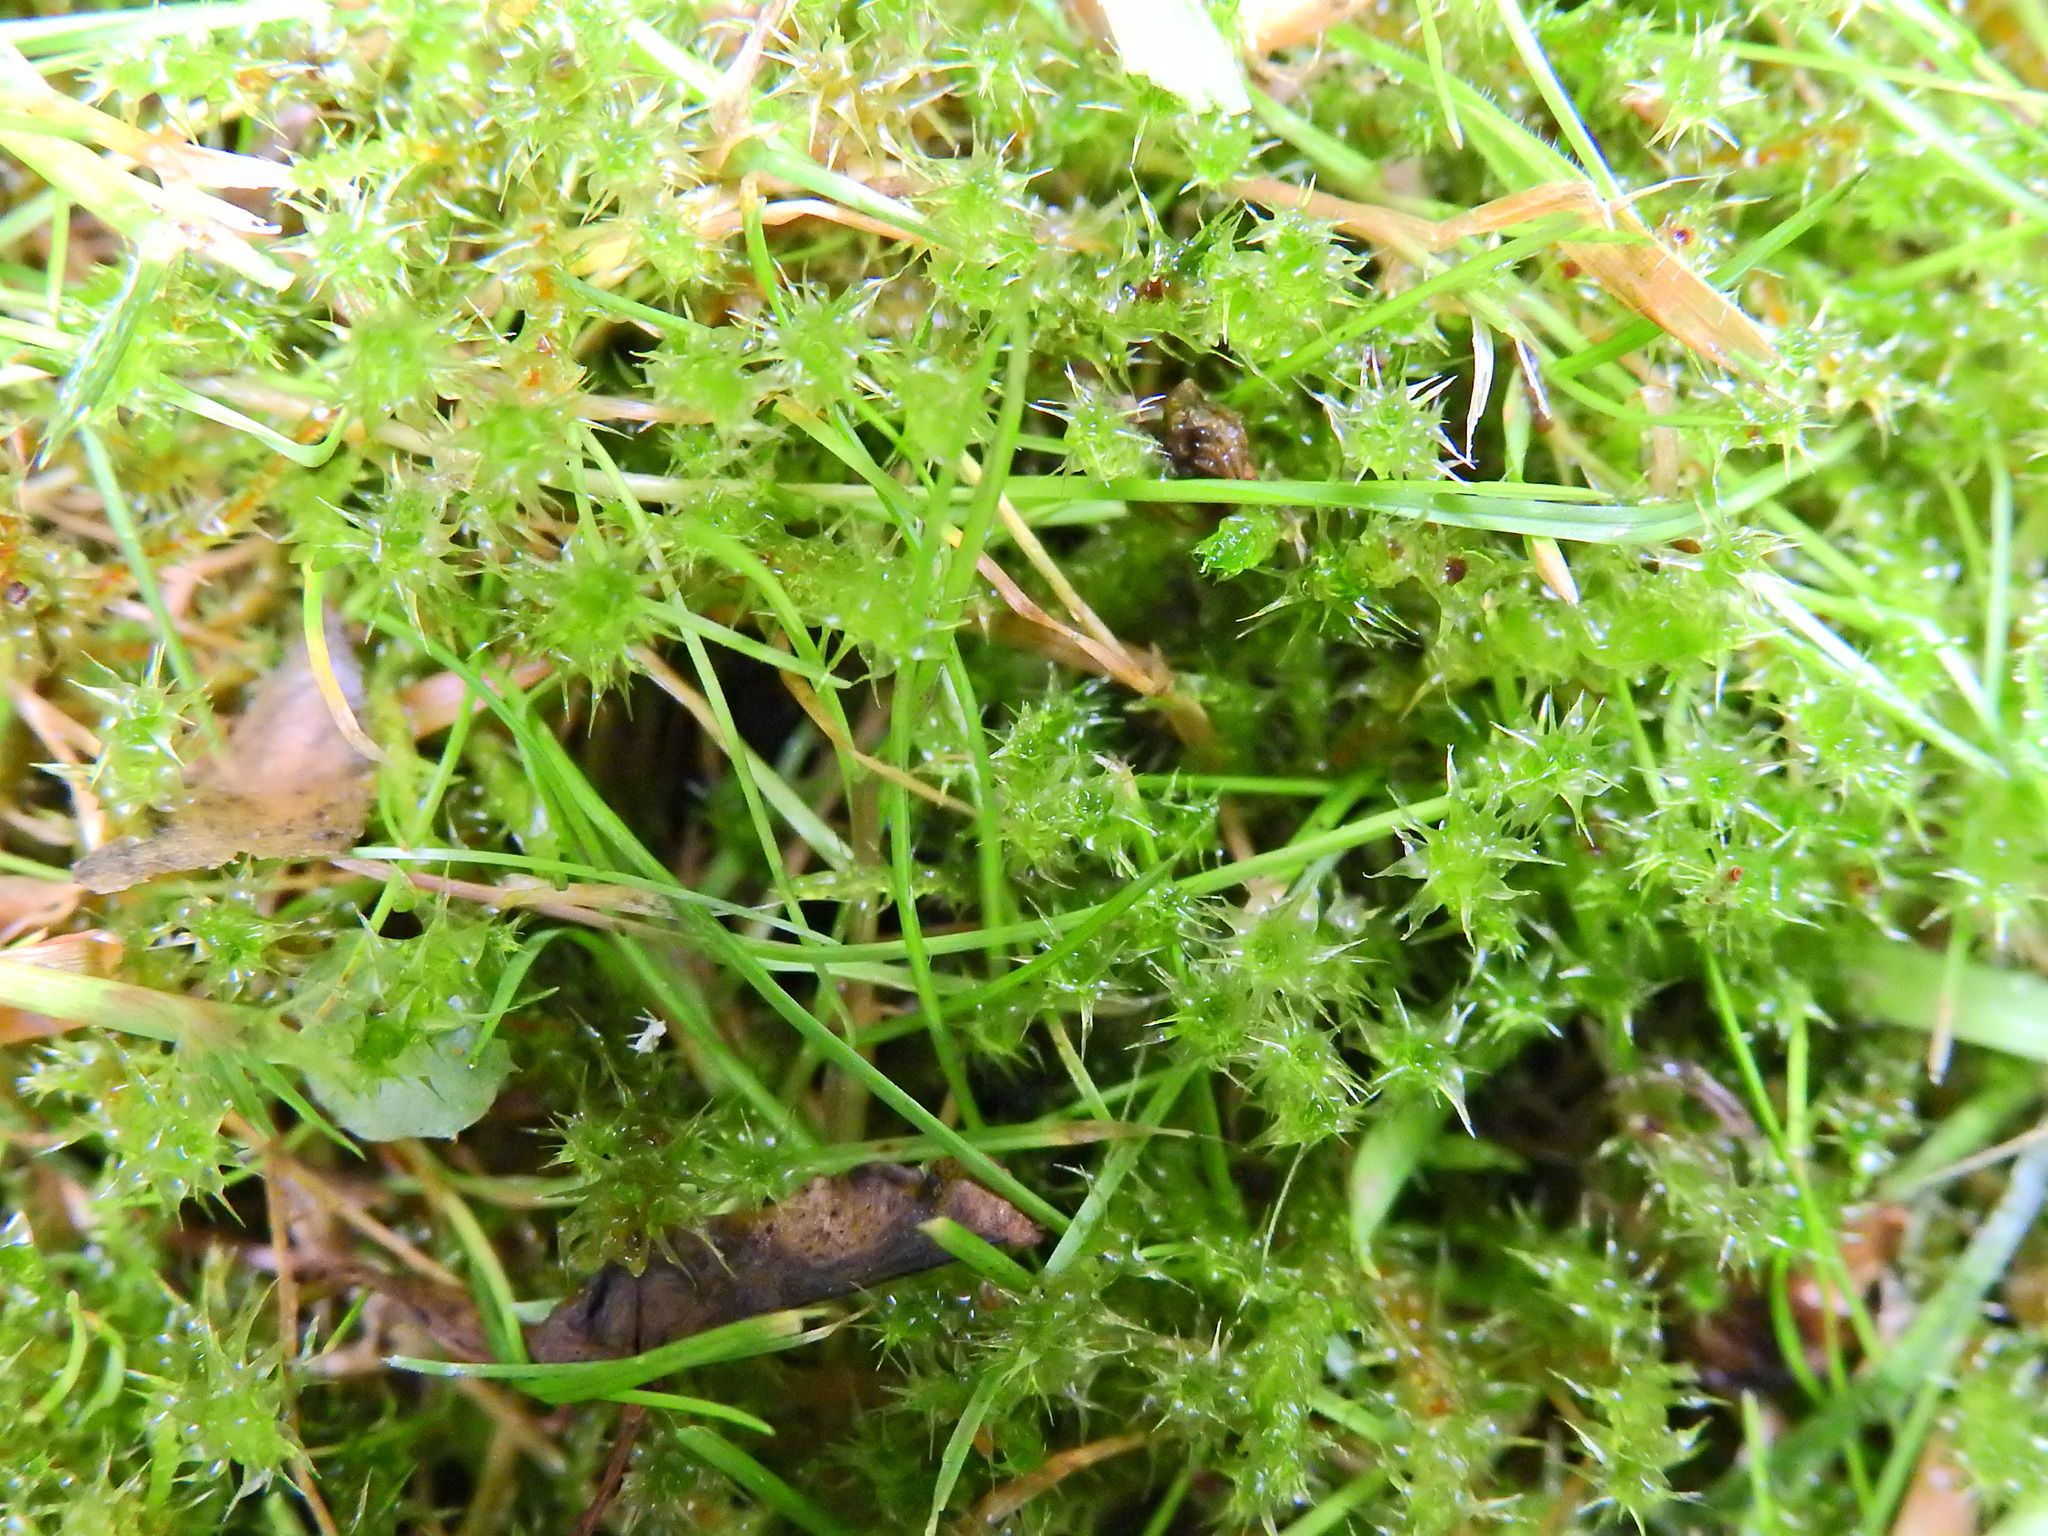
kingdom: Plantae
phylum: Bryophyta
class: Bryopsida
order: Hypnales
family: Hylocomiaceae
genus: Rhytidiadelphus
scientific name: Rhytidiadelphus squarrosus
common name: Springy turf-moss
